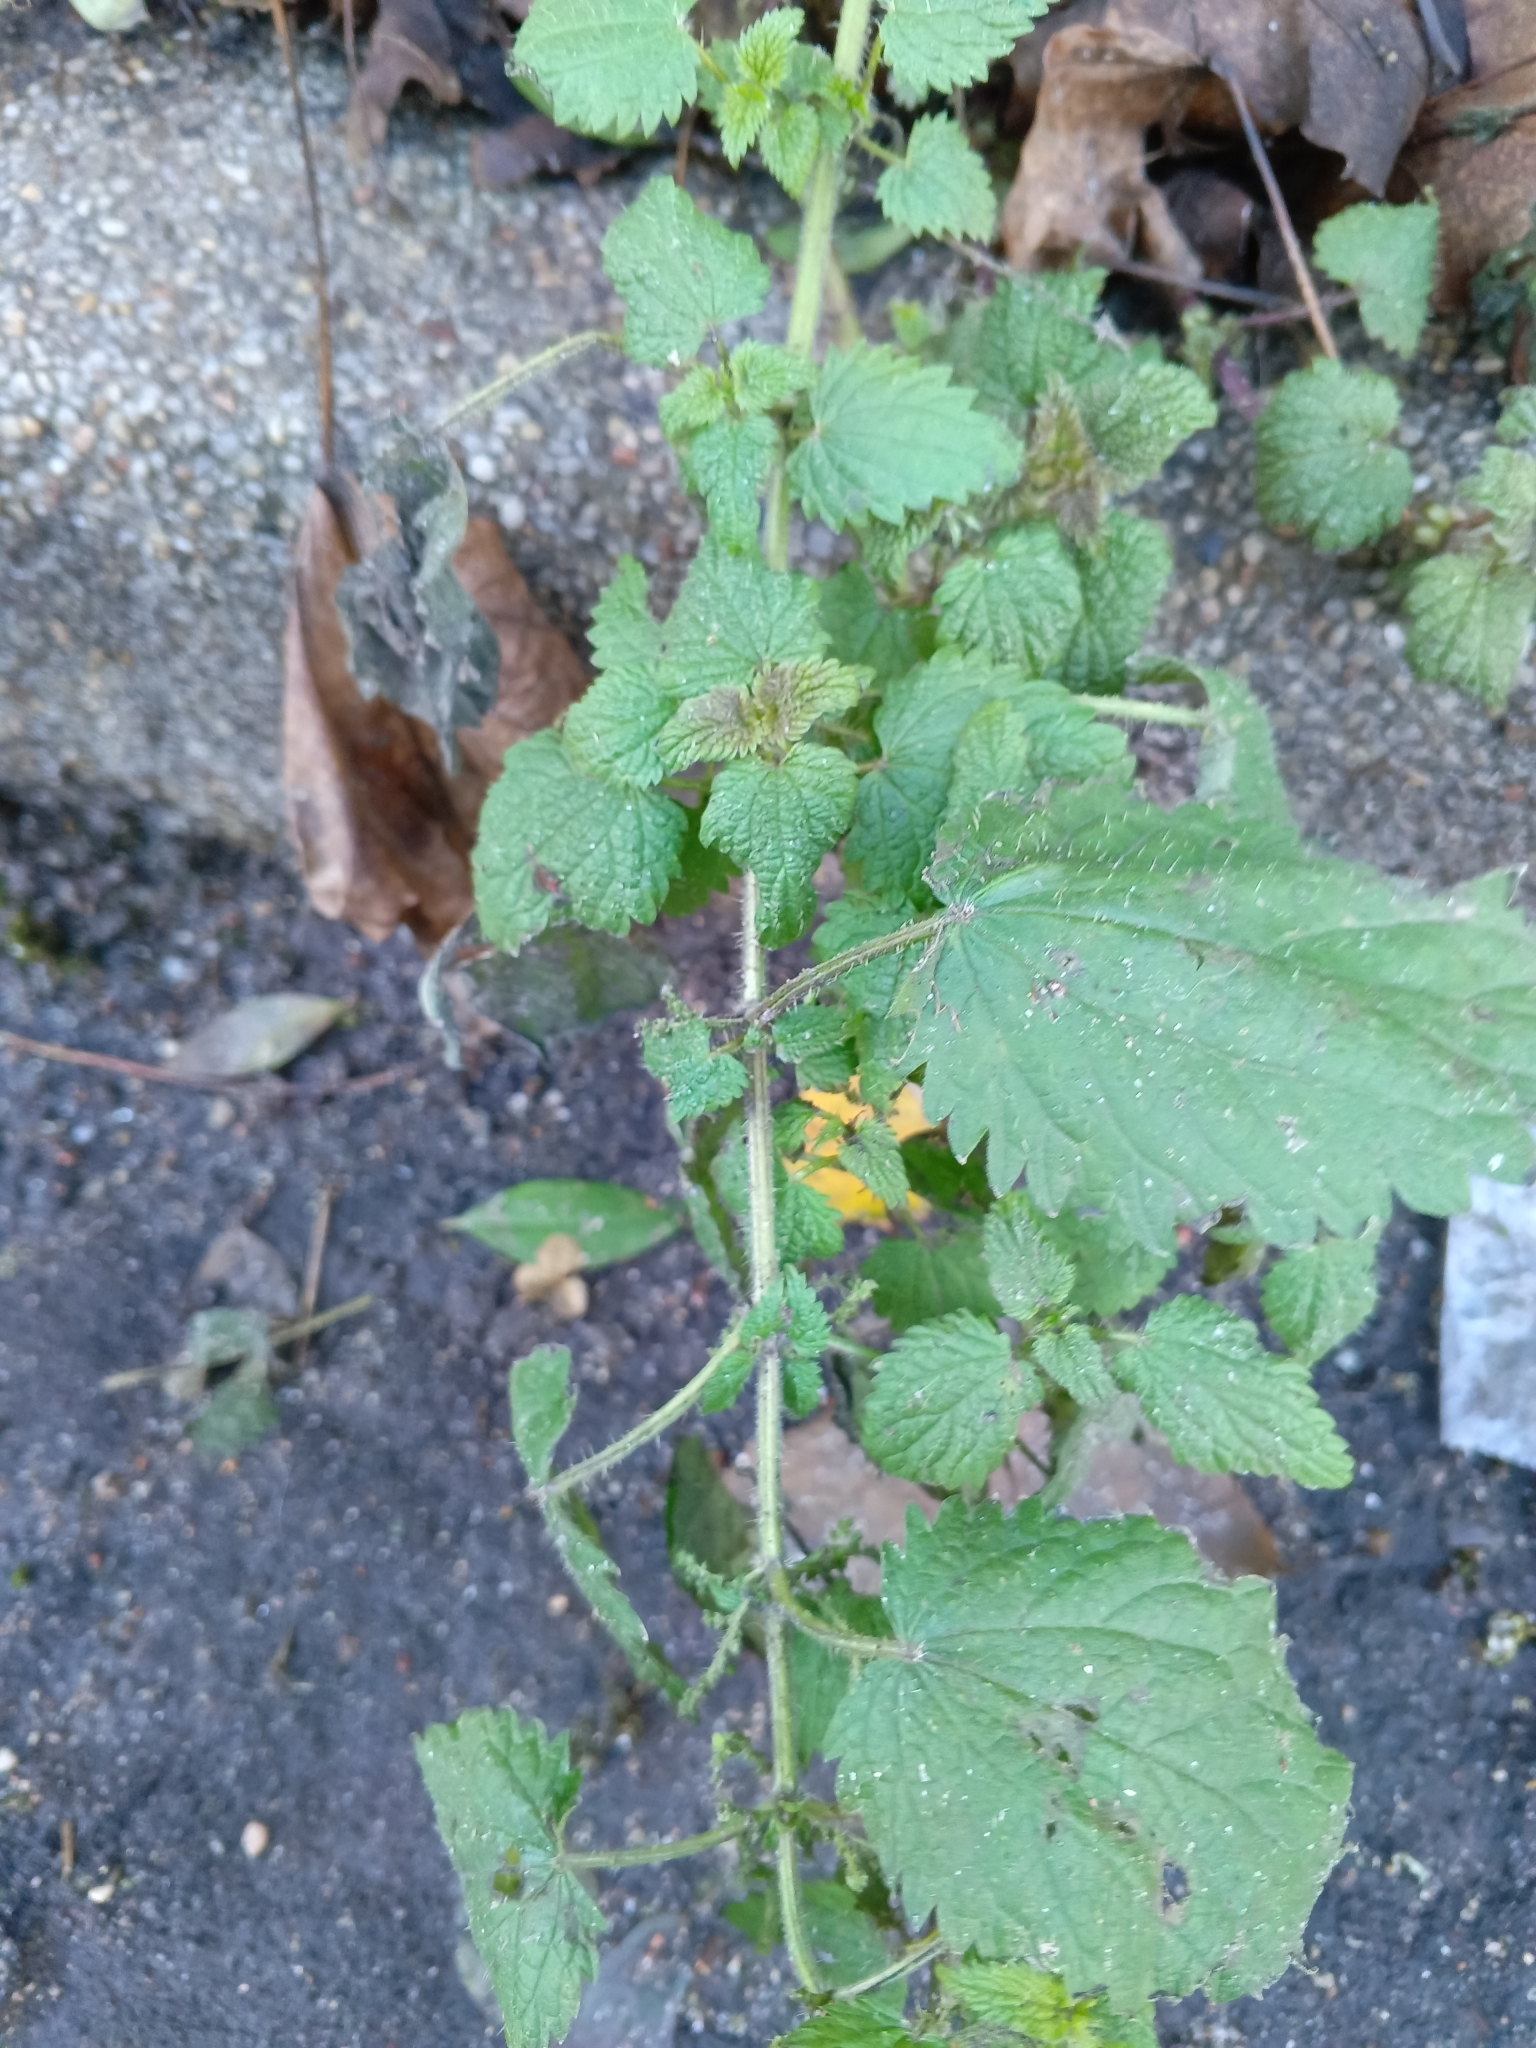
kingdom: Plantae
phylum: Tracheophyta
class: Magnoliopsida
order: Rosales
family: Urticaceae
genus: Urtica
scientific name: Urtica dioica
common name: Common nettle
